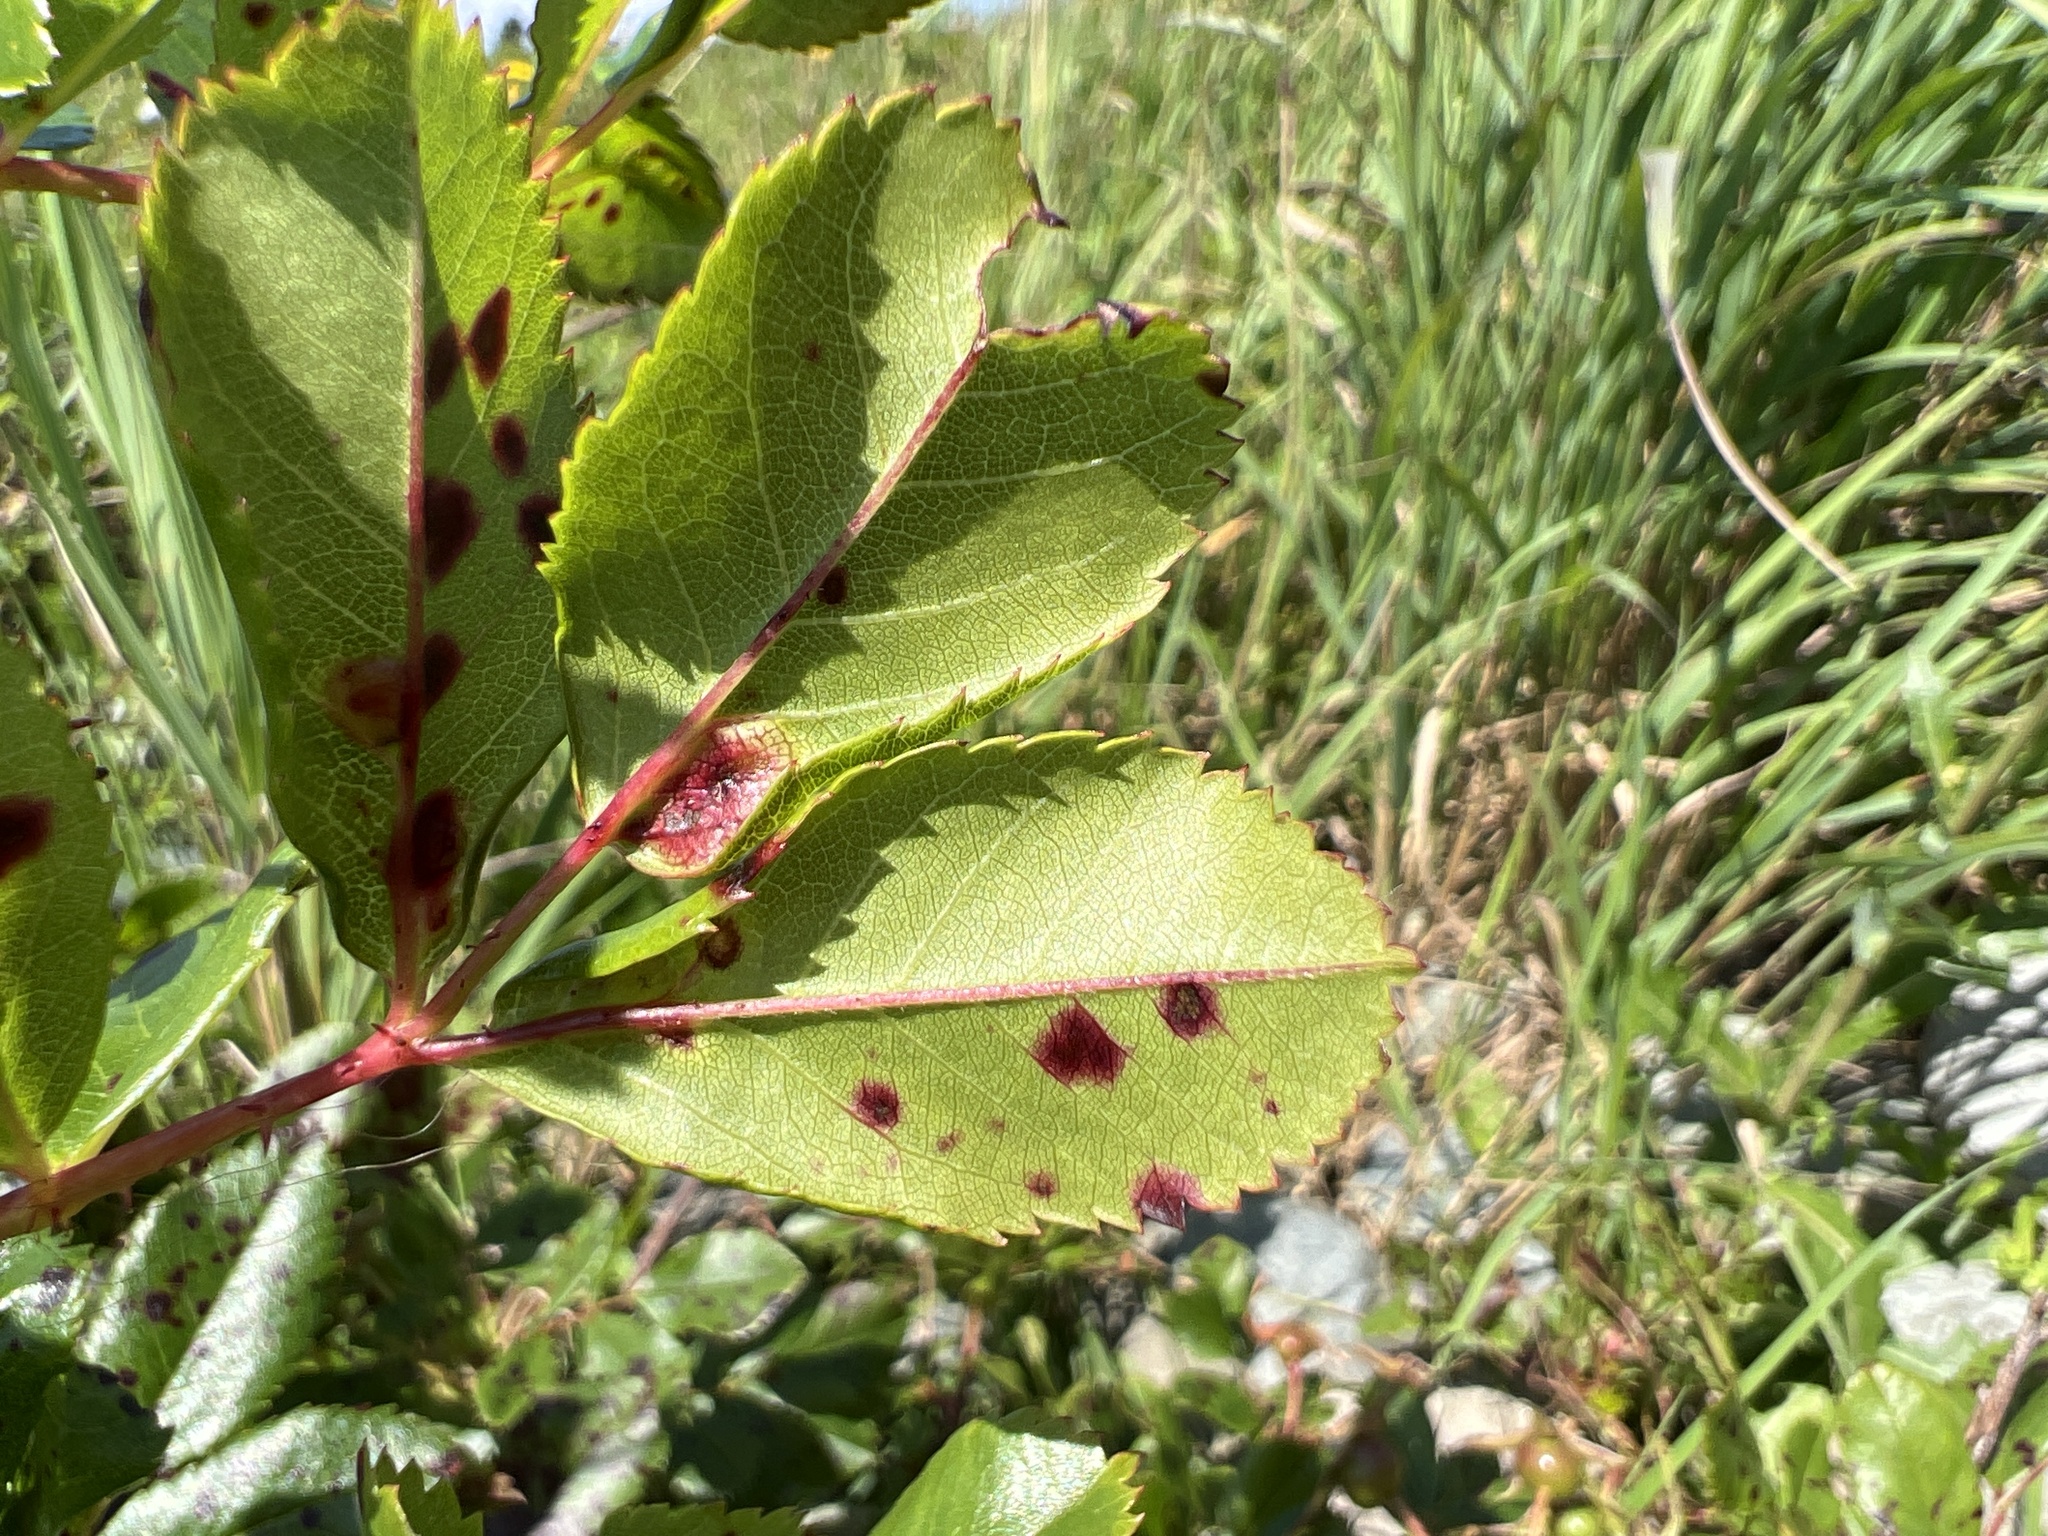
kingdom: Animalia
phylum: Arthropoda
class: Insecta
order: Hymenoptera
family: Cynipidae
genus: Diplolepis
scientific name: Diplolepis rosaefolii
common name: Blister-gall wasp
